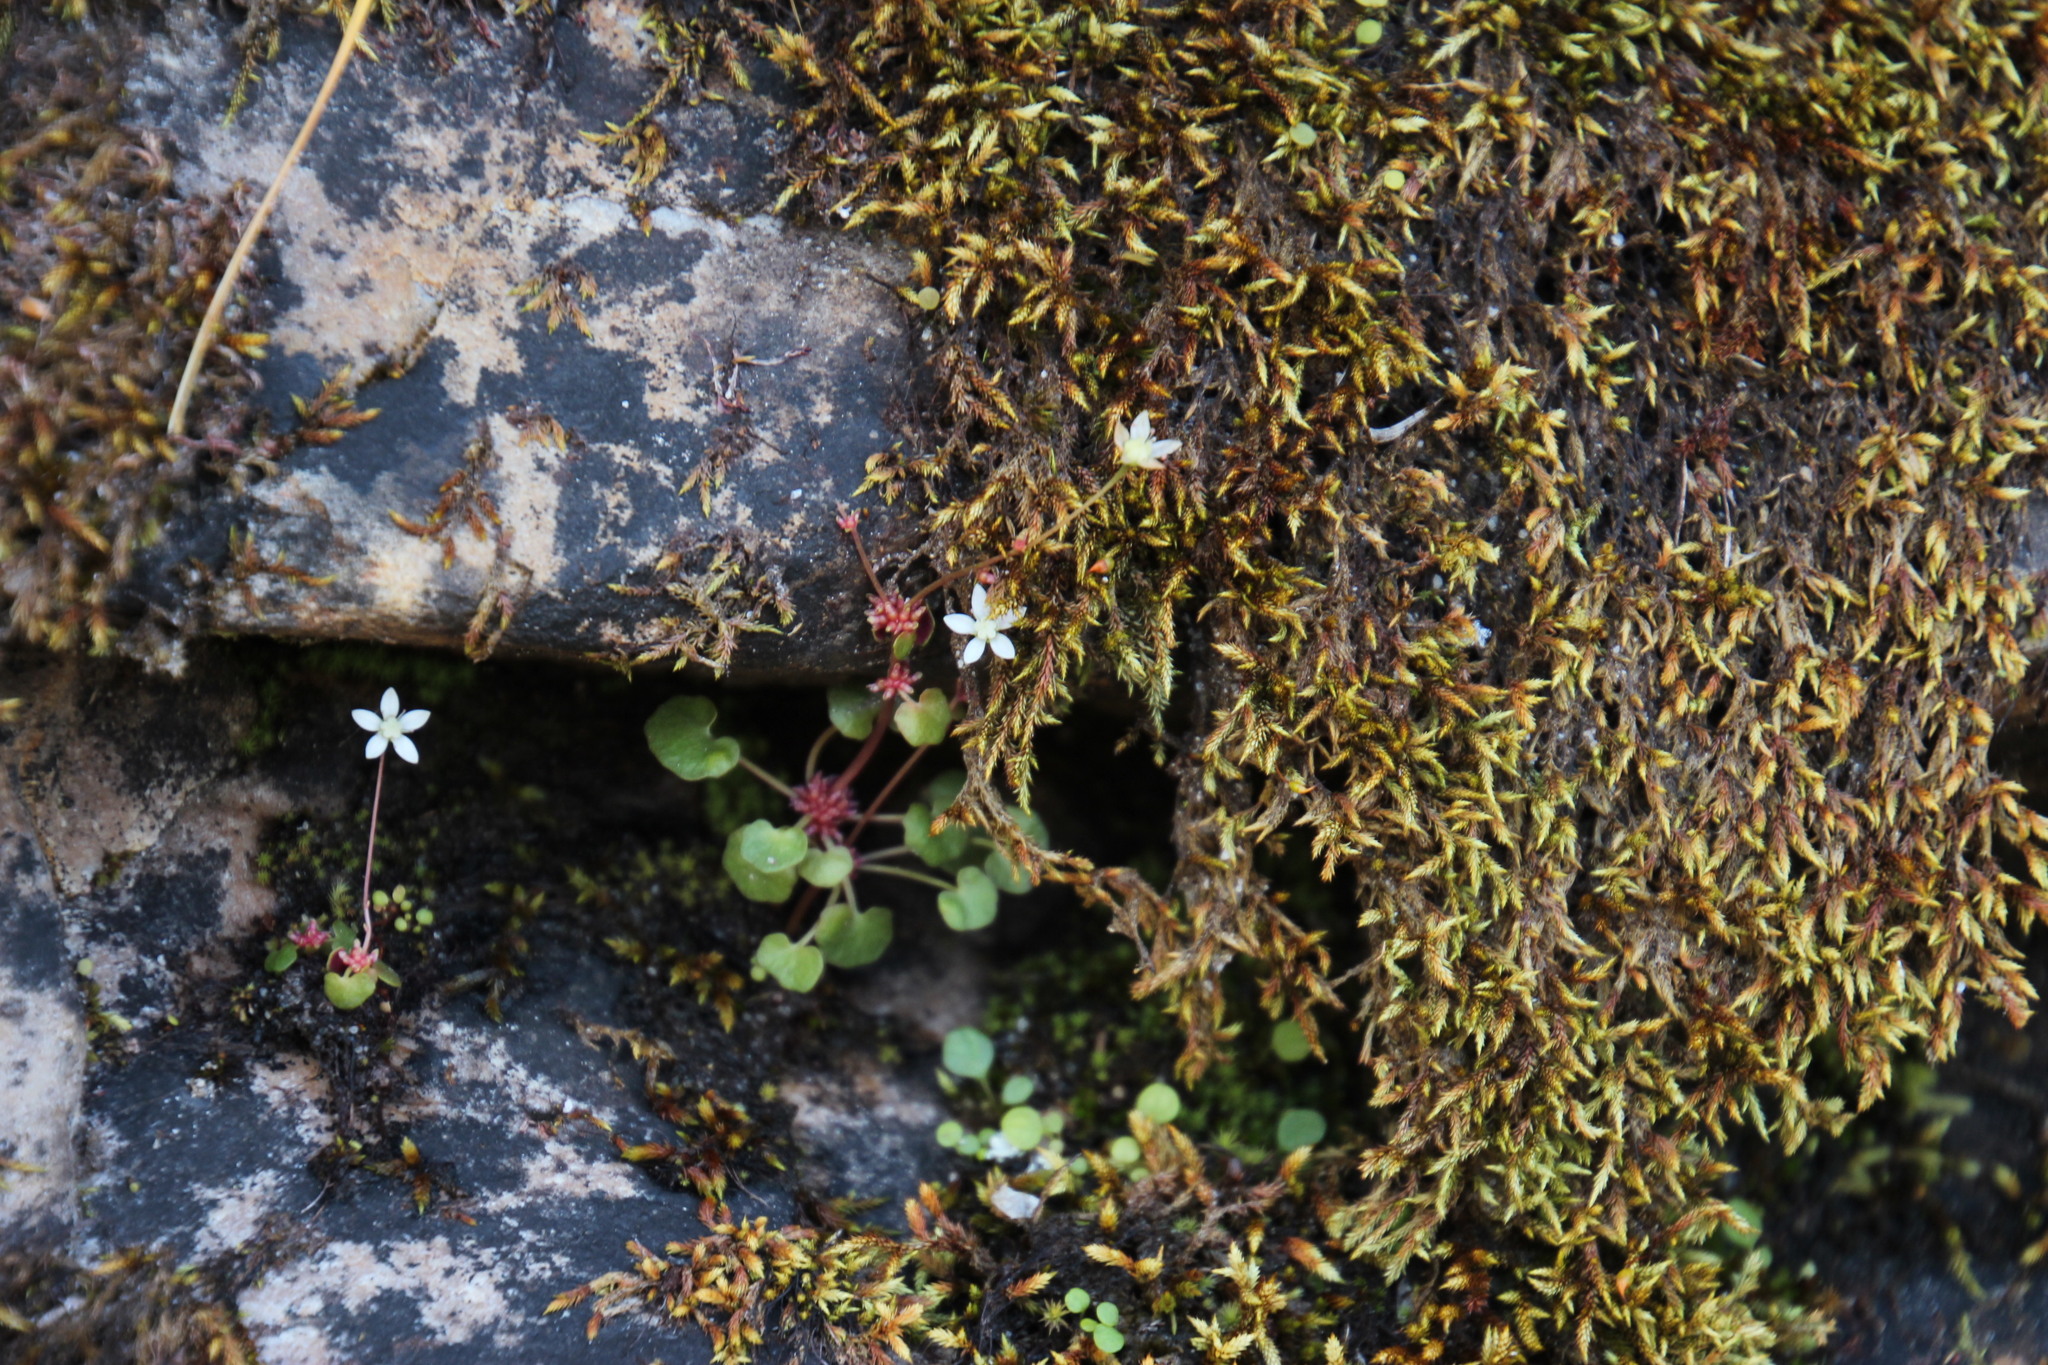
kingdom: Plantae
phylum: Tracheophyta
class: Magnoliopsida
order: Saxifragales
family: Crassulaceae
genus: Crassula
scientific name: Crassula dentata
